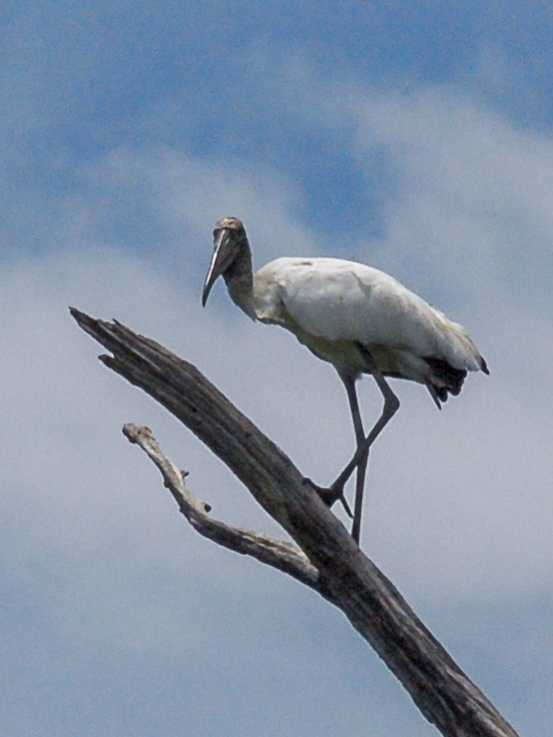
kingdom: Animalia
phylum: Chordata
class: Aves
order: Ciconiiformes
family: Ciconiidae
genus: Mycteria
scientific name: Mycteria americana
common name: Wood stork
